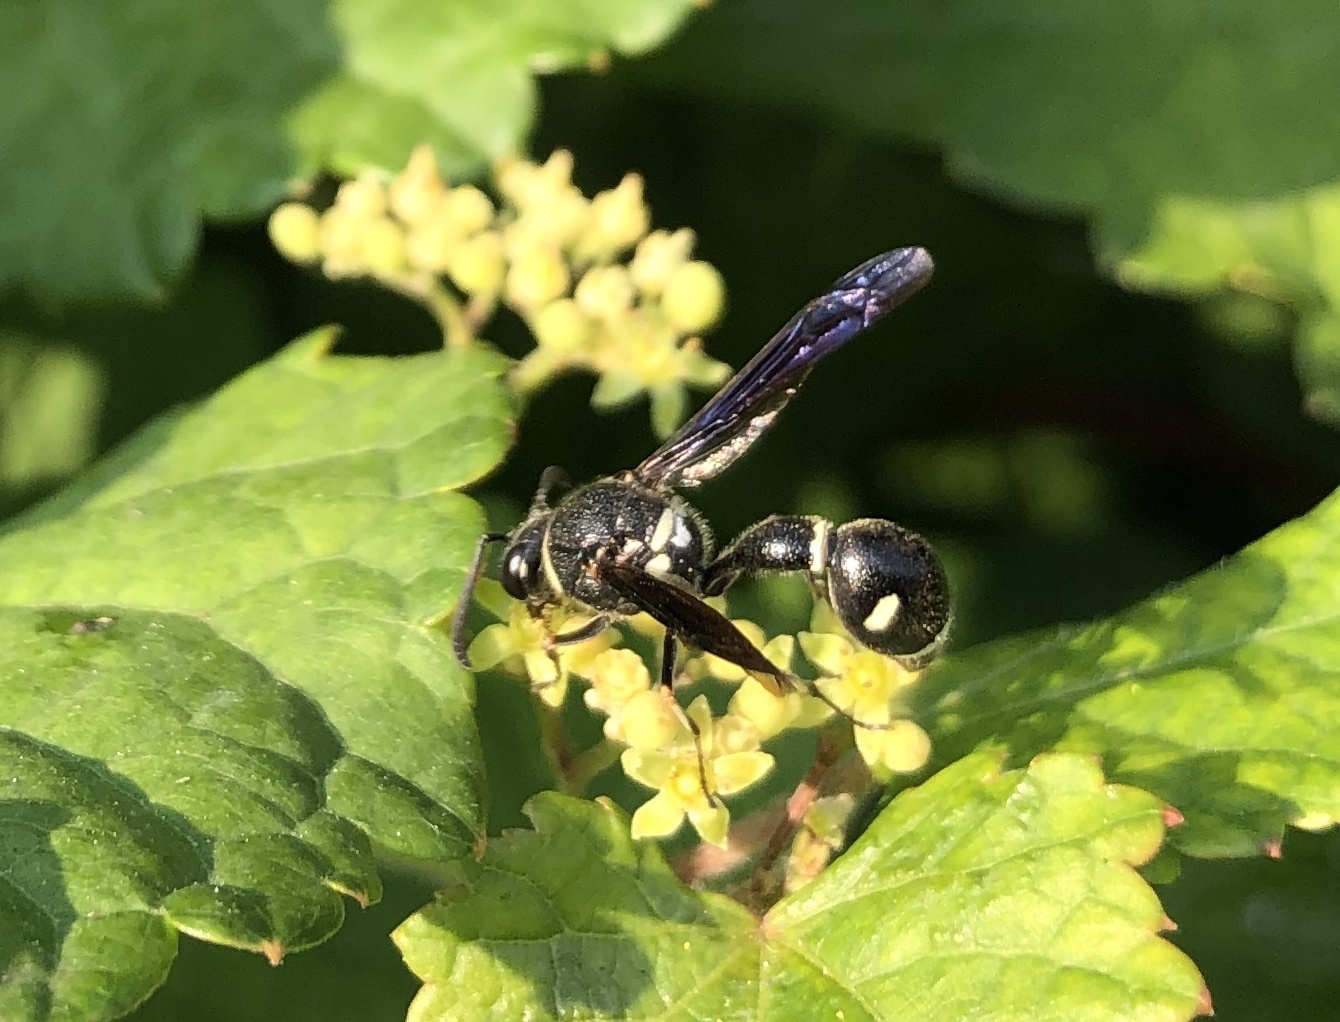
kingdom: Animalia
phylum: Arthropoda
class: Insecta
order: Hymenoptera
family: Vespidae
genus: Eumenes
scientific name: Eumenes fraternus
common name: Fraternal potter wasp
